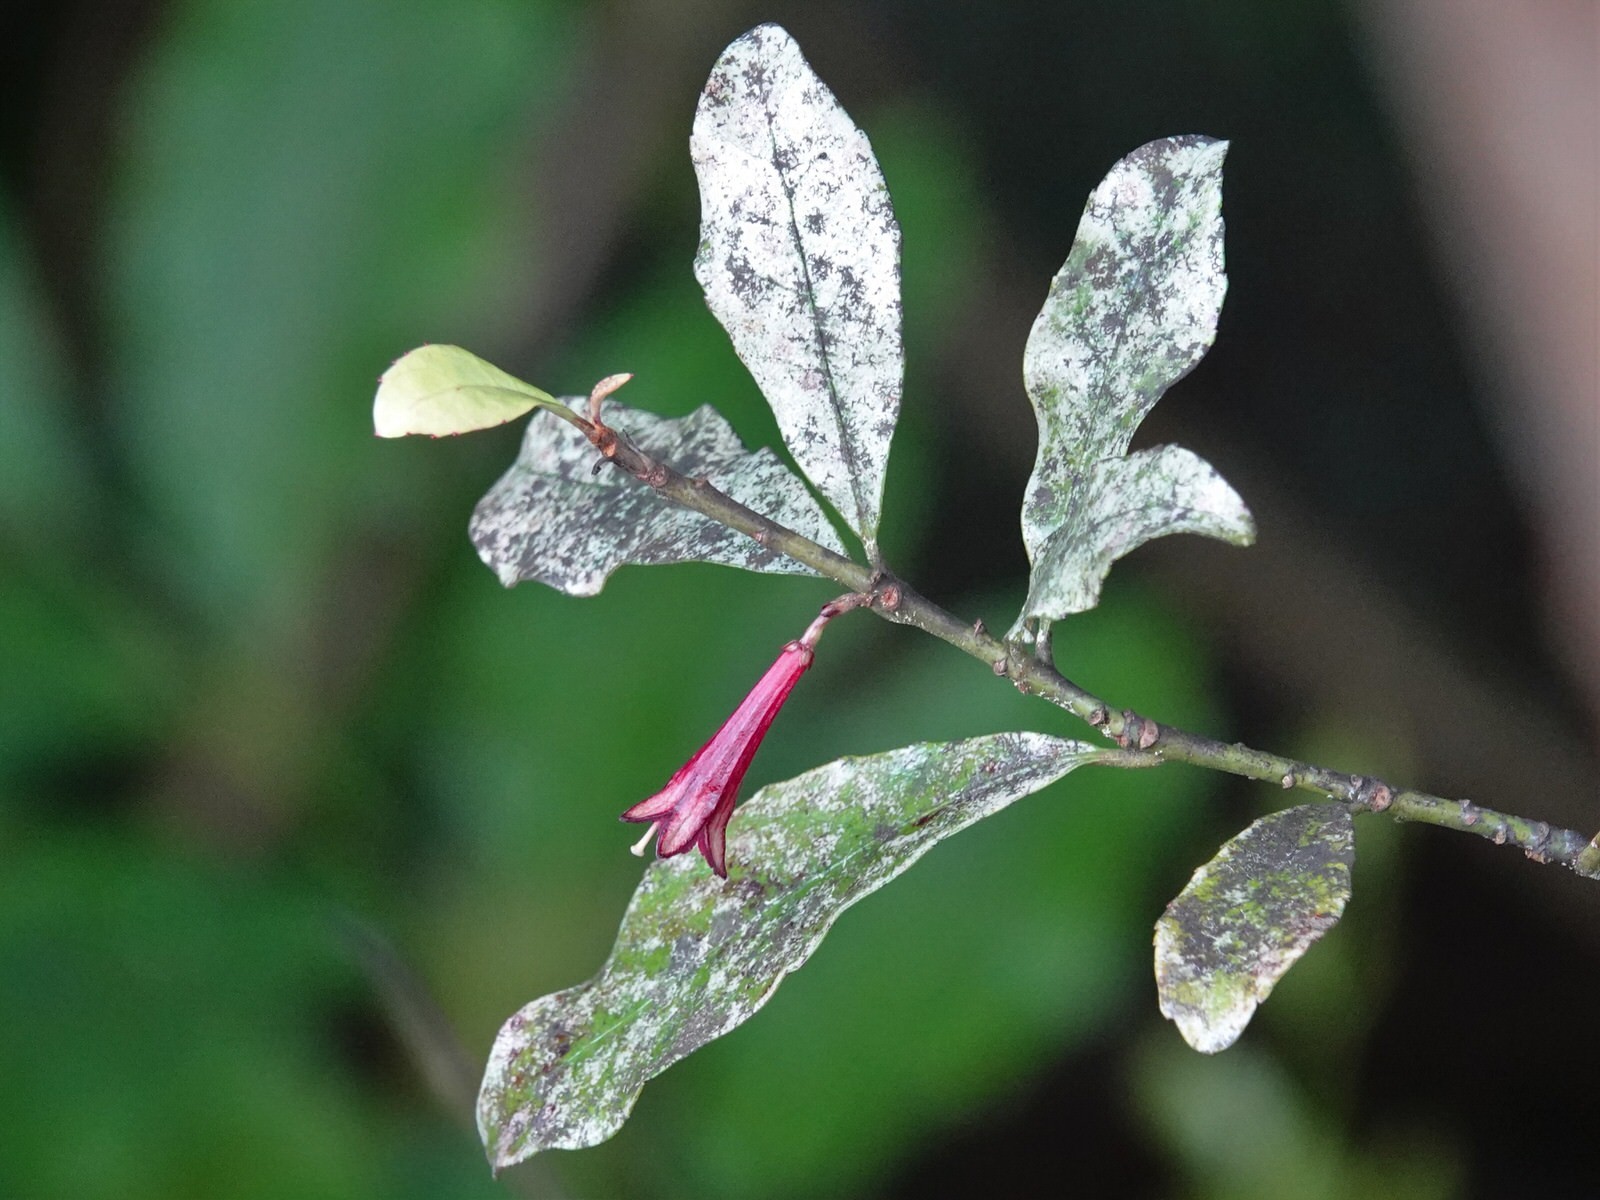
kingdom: Plantae
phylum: Tracheophyta
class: Magnoliopsida
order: Asterales
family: Alseuosmiaceae
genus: Alseuosmia
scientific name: Alseuosmia macrophylla
